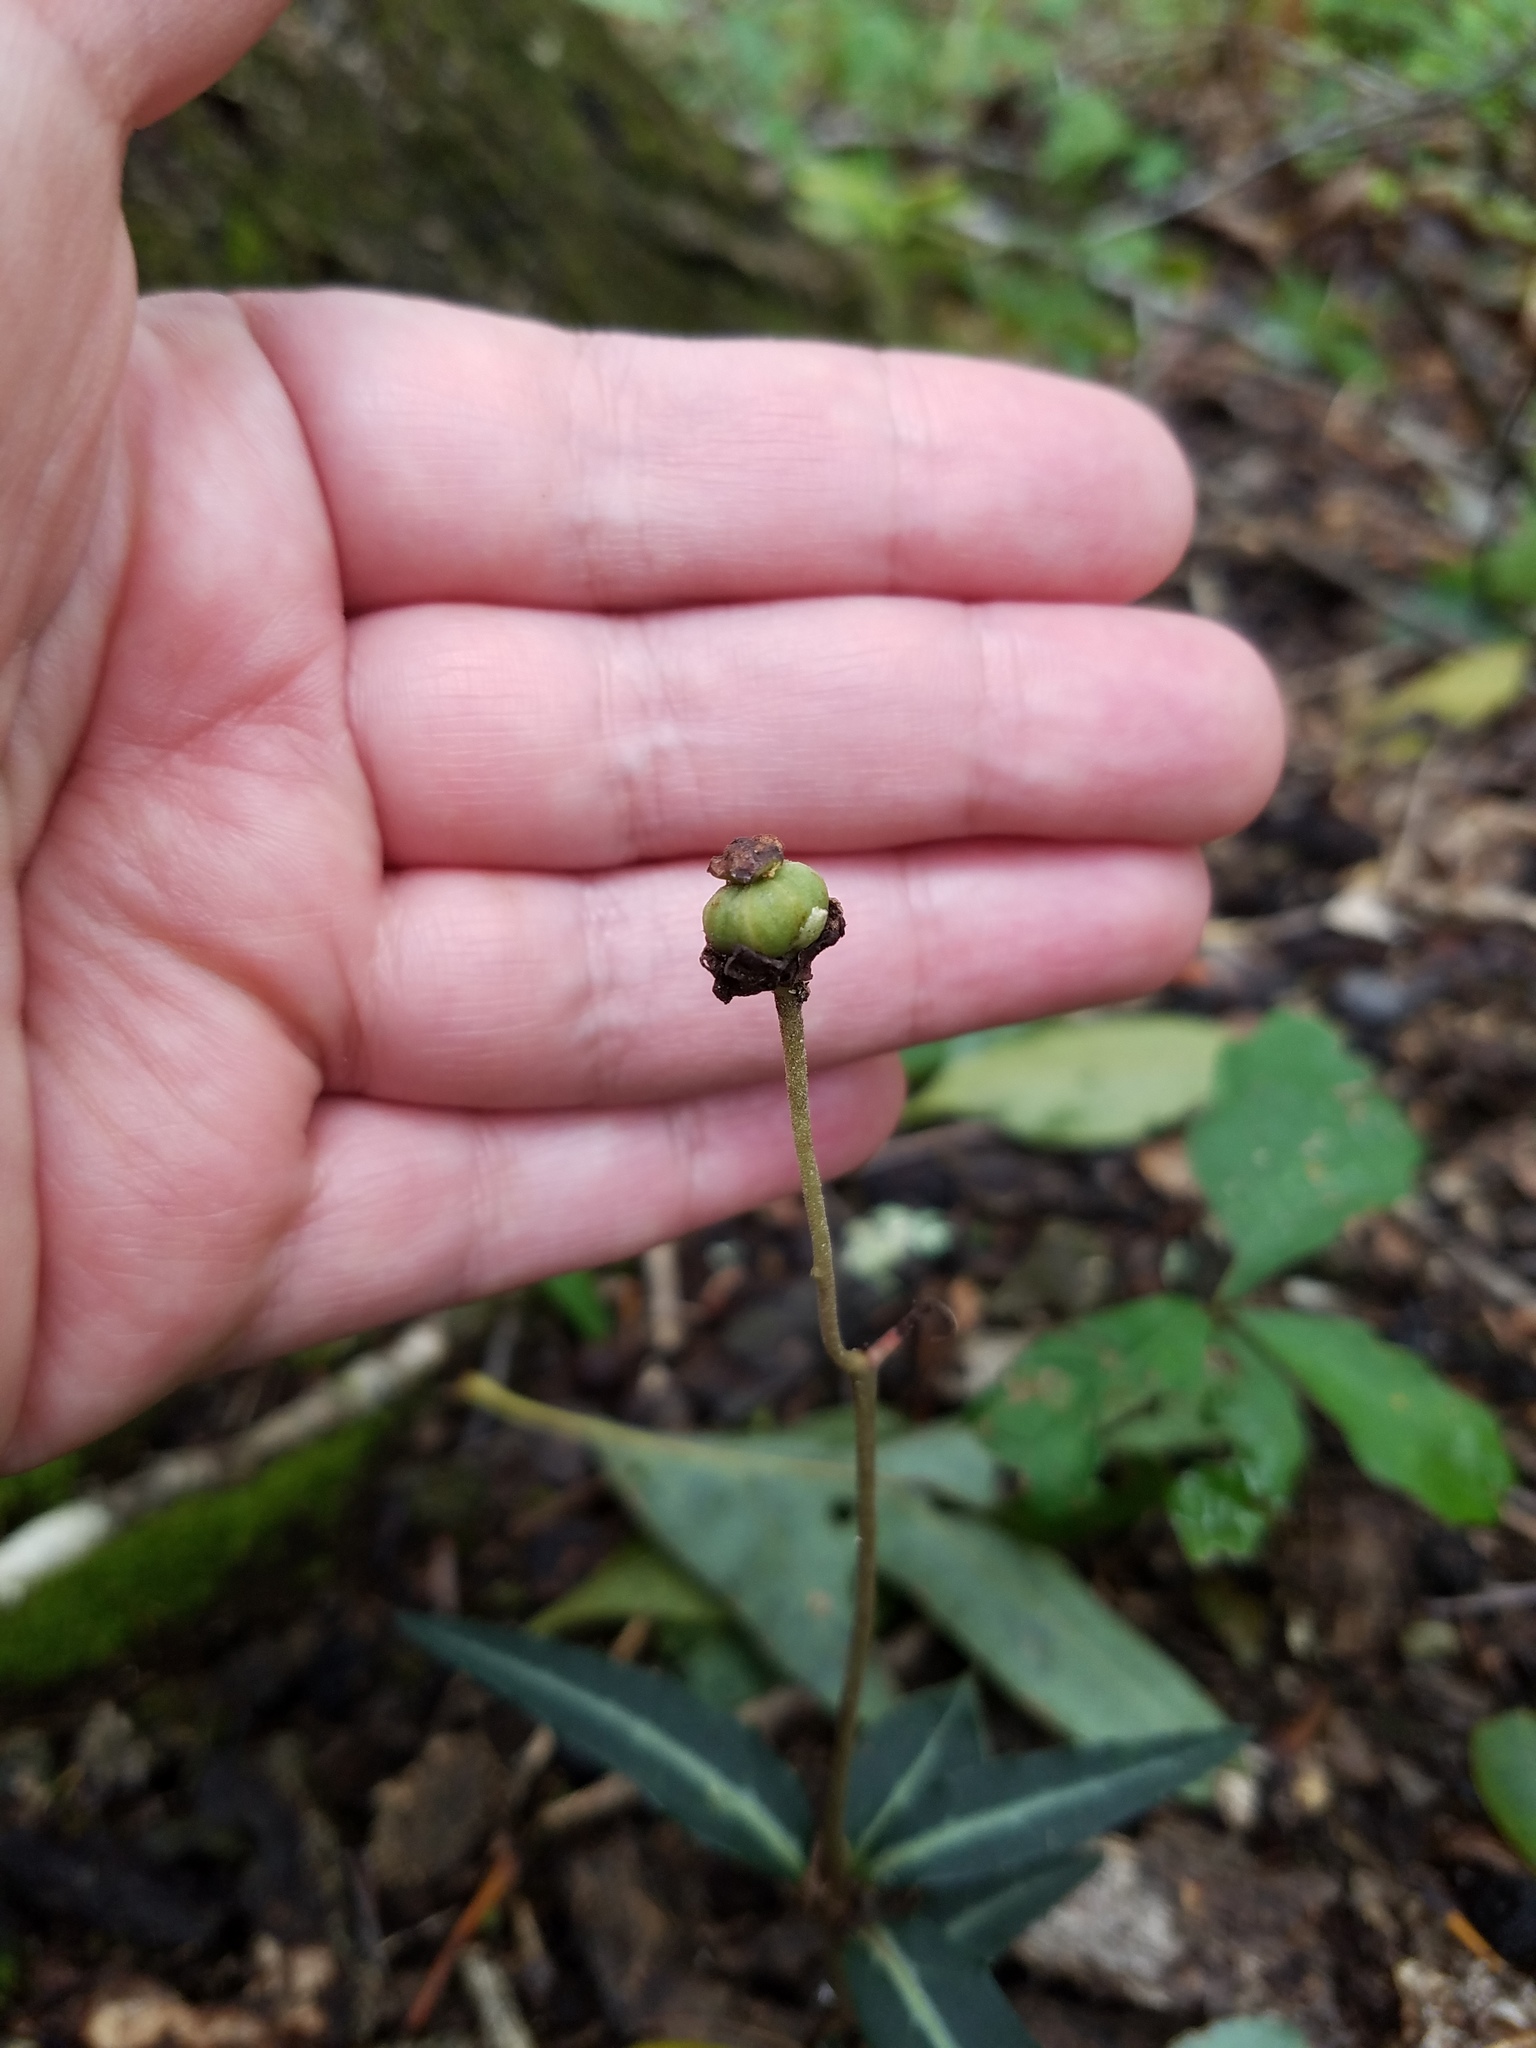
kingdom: Plantae
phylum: Tracheophyta
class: Magnoliopsida
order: Ericales
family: Ericaceae
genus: Chimaphila
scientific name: Chimaphila maculata
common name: Spotted pipsissewa
